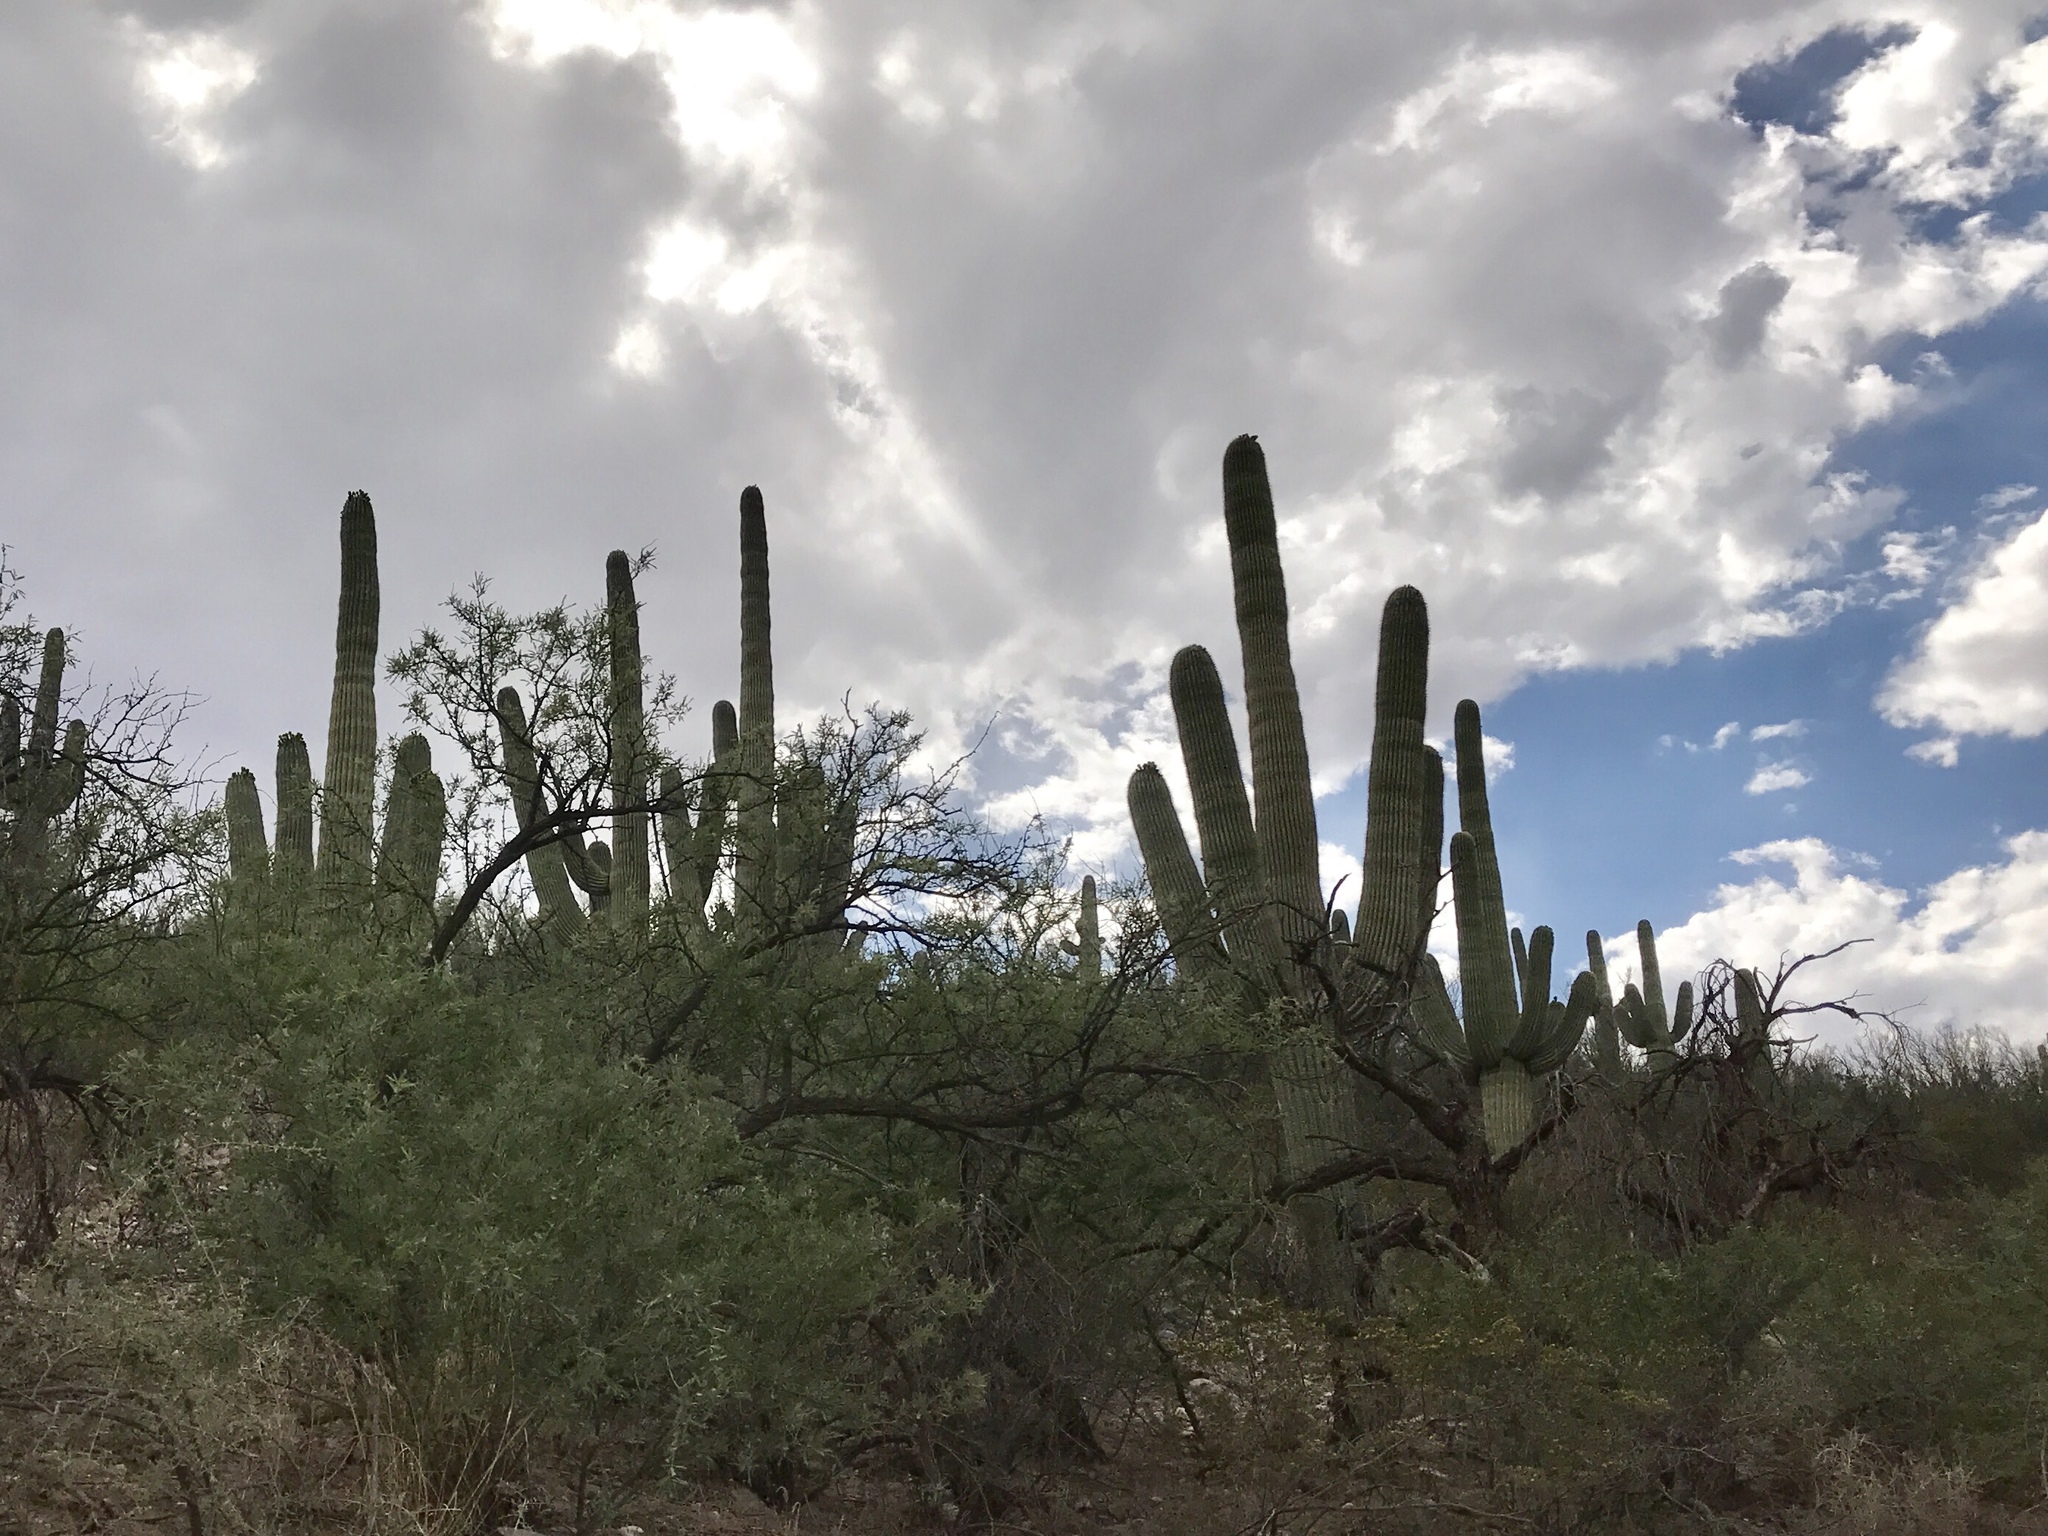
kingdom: Plantae
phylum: Tracheophyta
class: Magnoliopsida
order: Caryophyllales
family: Cactaceae
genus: Carnegiea
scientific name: Carnegiea gigantea
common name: Saguaro
